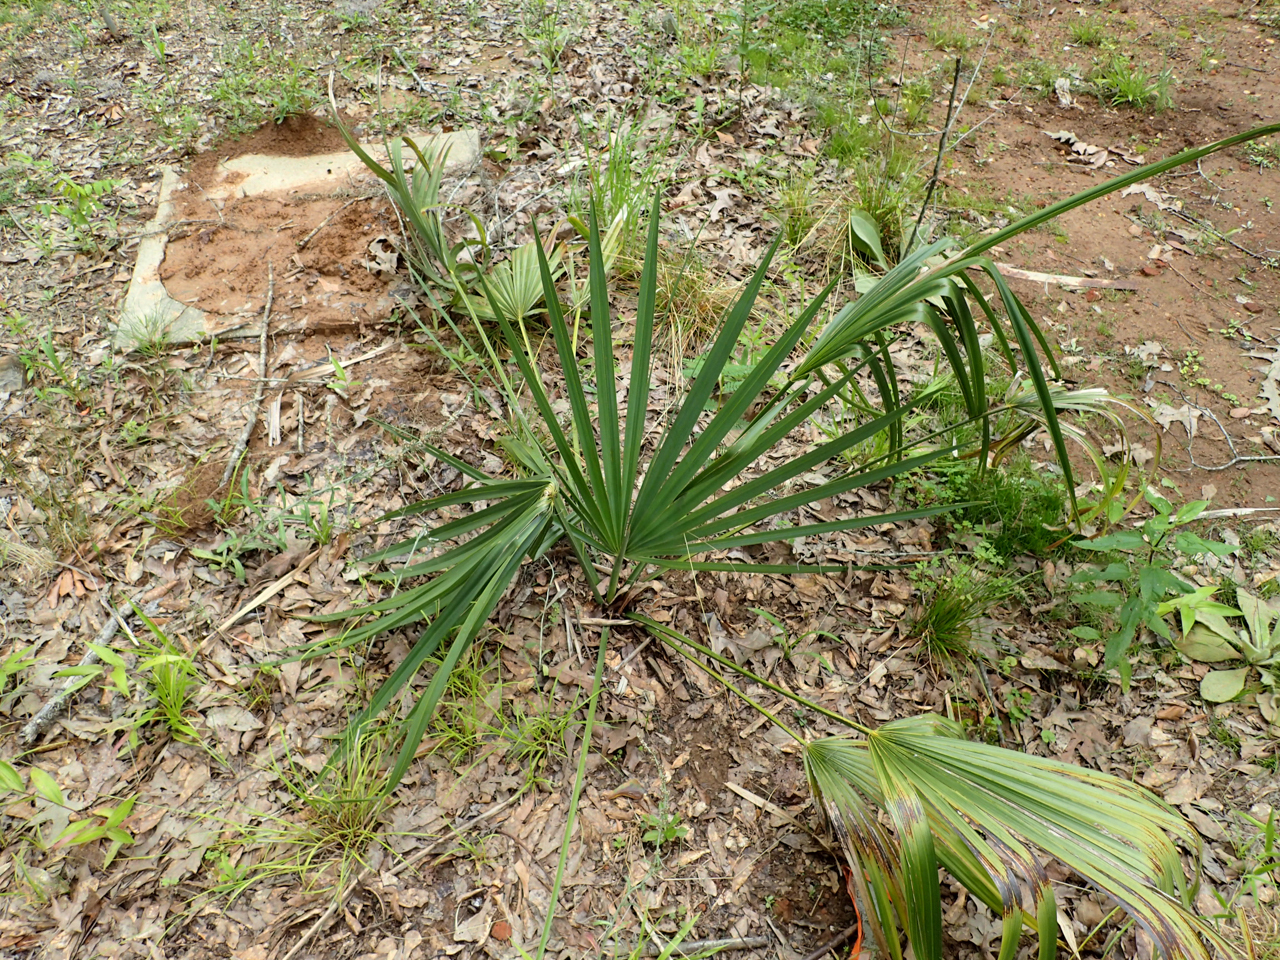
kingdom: Plantae
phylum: Tracheophyta
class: Liliopsida
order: Arecales
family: Arecaceae
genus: Sabal
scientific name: Sabal minor
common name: Dwarf palmetto
